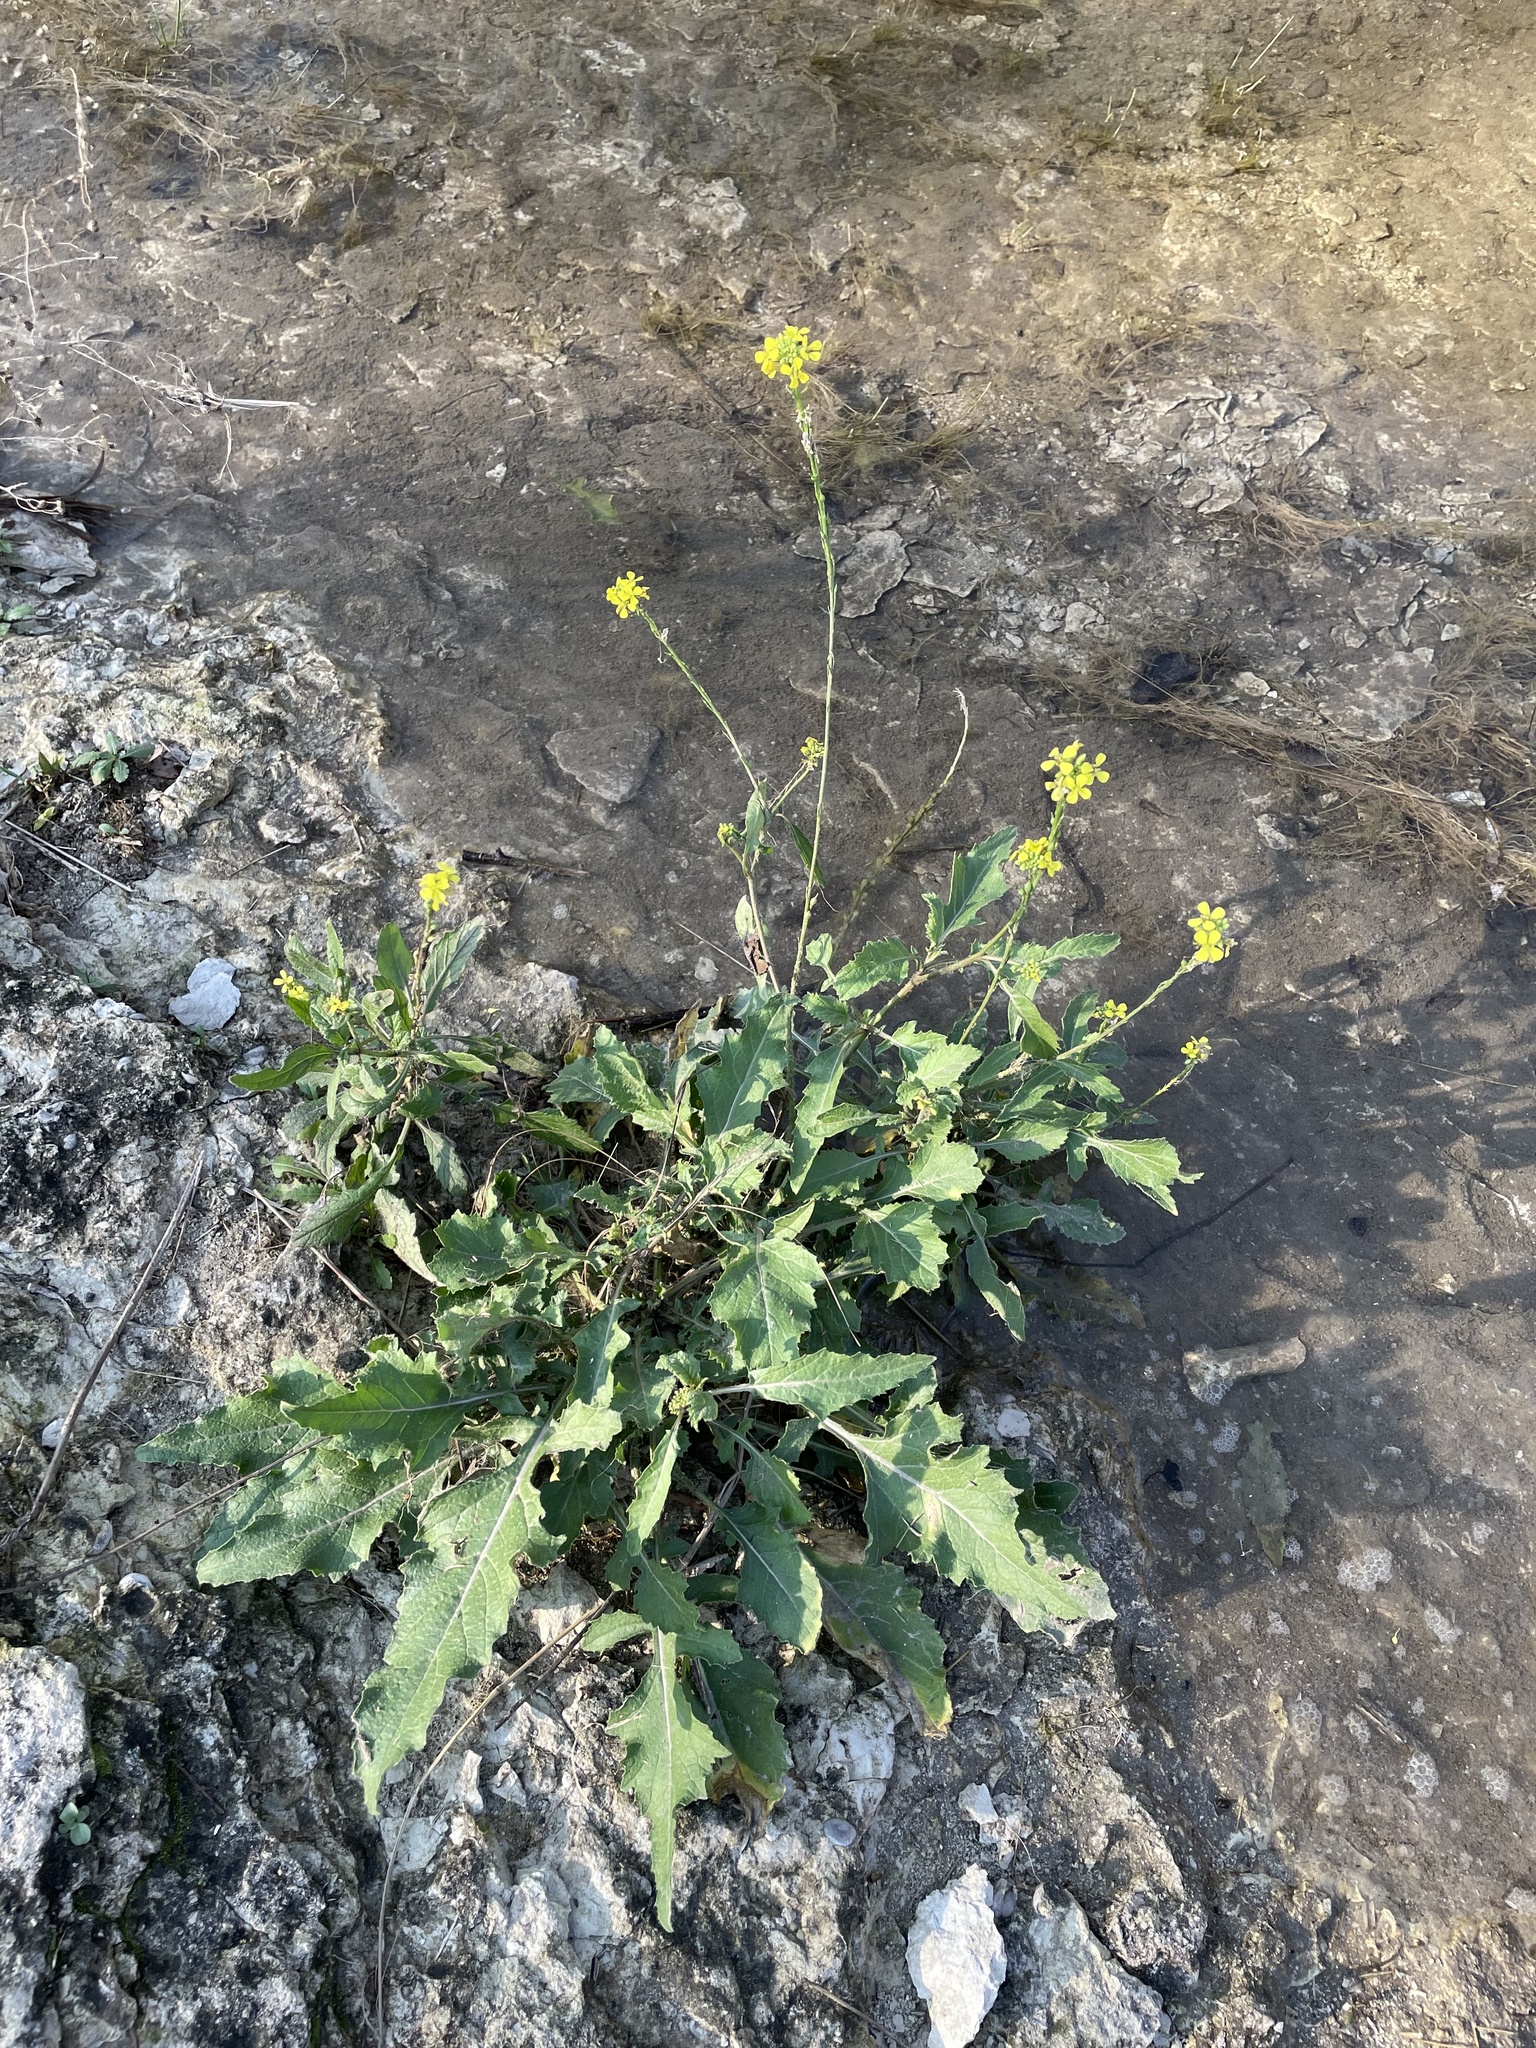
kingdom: Plantae
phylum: Tracheophyta
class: Magnoliopsida
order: Brassicales
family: Brassicaceae
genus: Rapistrum
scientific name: Rapistrum rugosum
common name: Annual bastardcabbage
